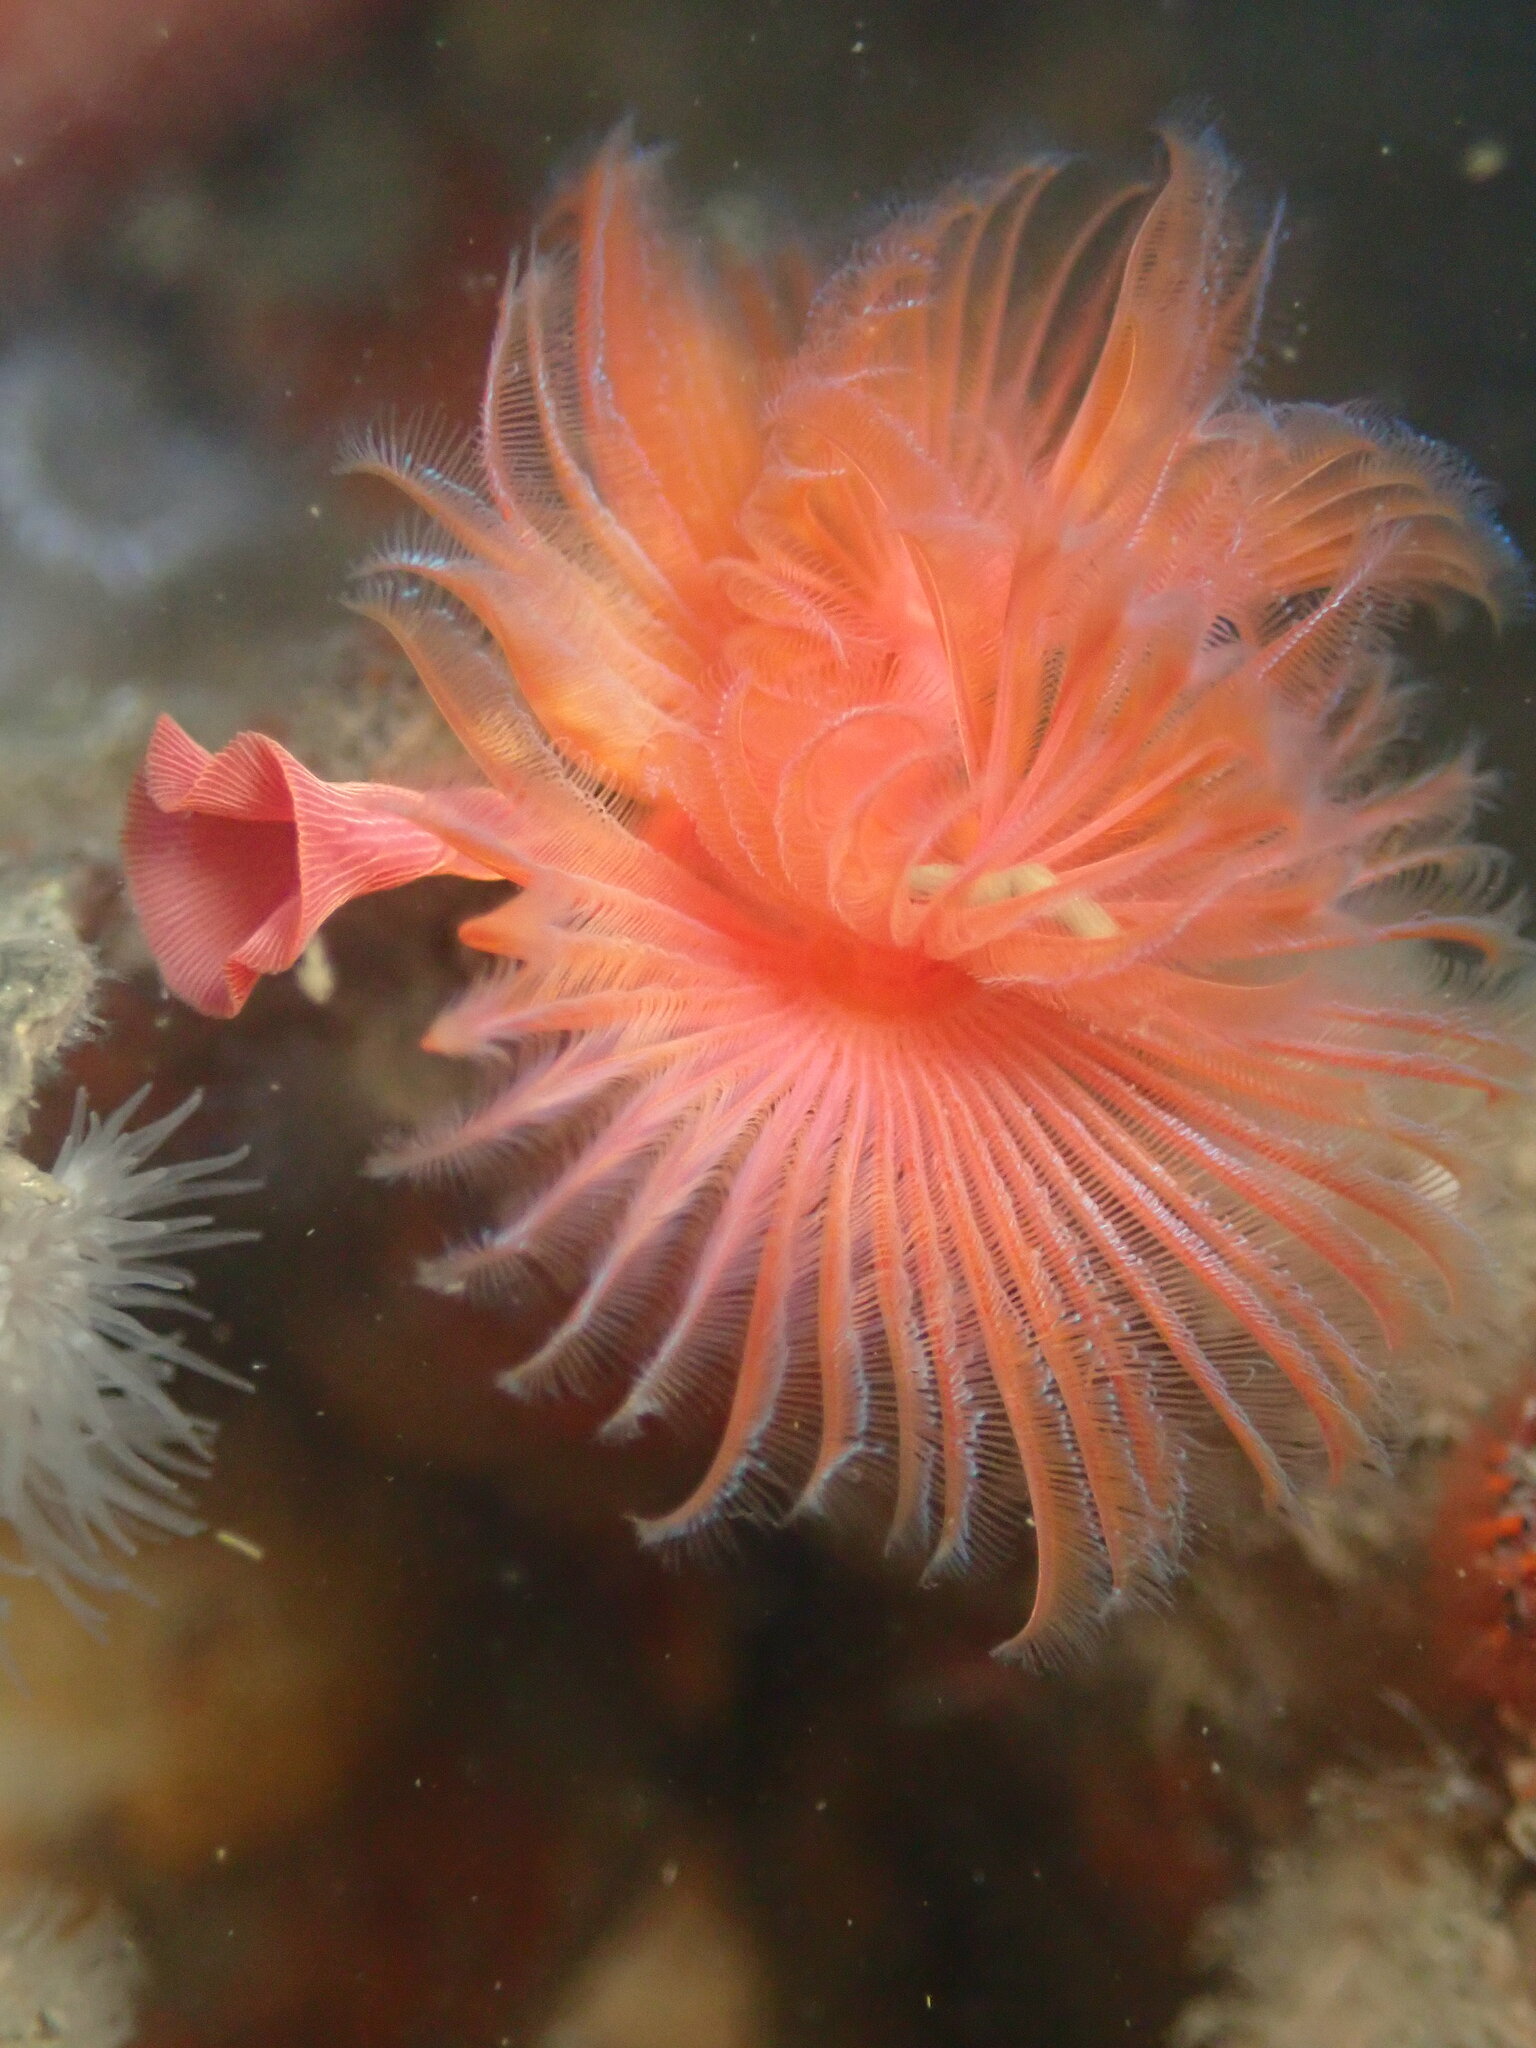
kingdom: Animalia
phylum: Annelida
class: Polychaeta
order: Sabellida
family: Serpulidae
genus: Serpula
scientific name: Serpula columbiana
